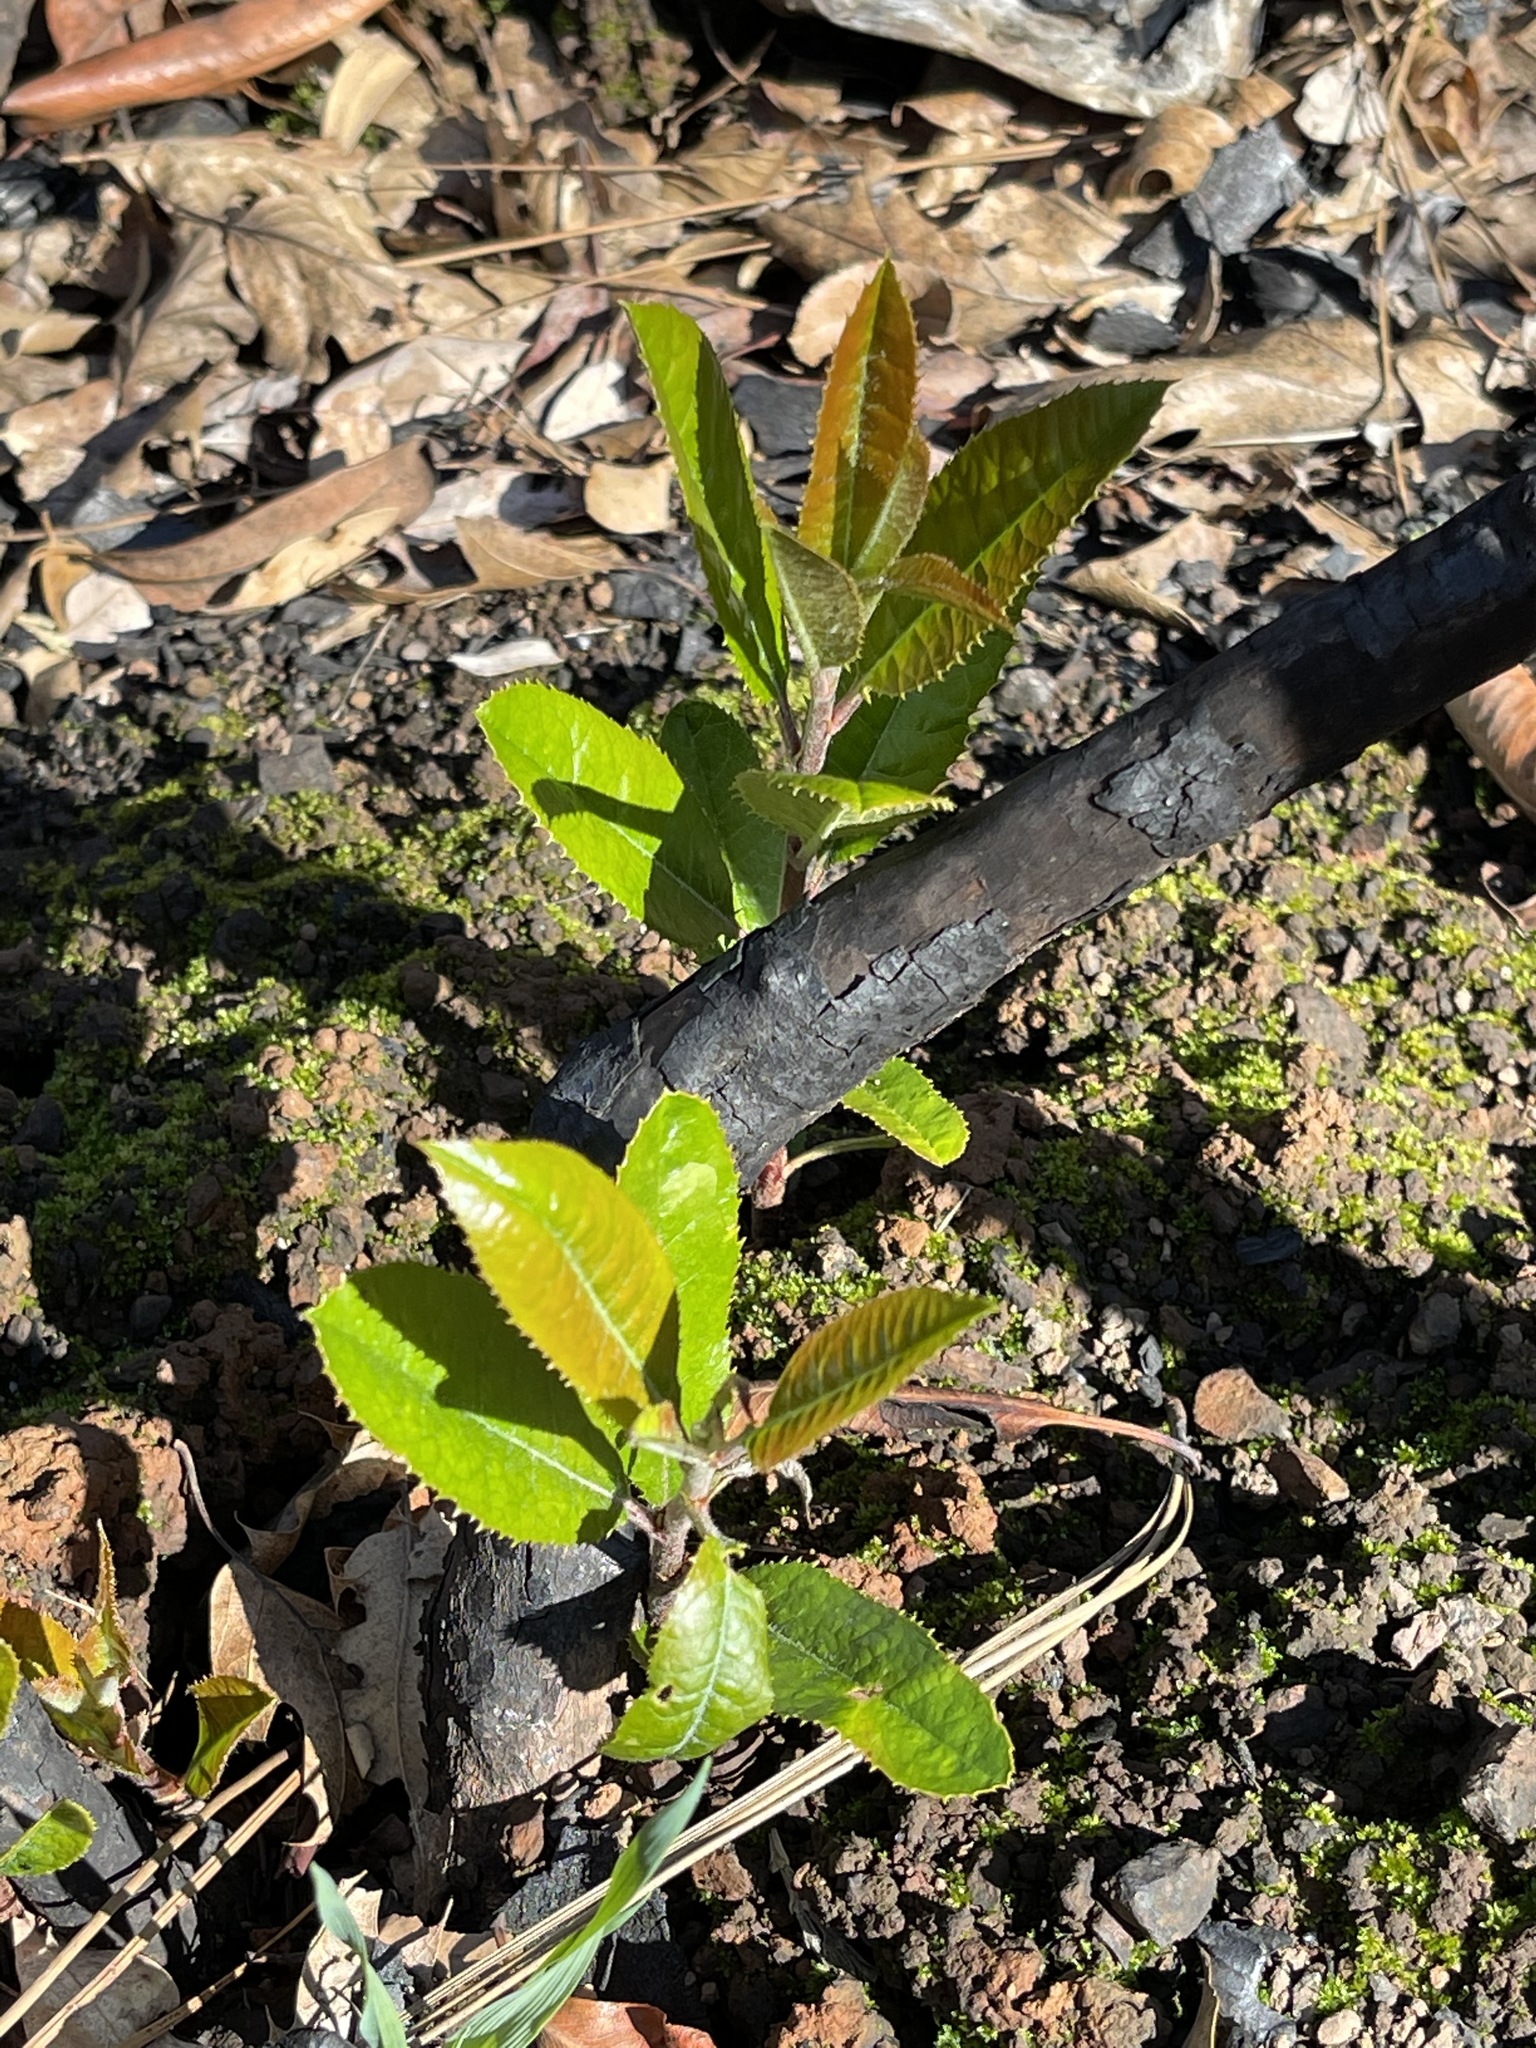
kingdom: Plantae
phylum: Tracheophyta
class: Magnoliopsida
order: Rosales
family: Rosaceae
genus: Heteromeles
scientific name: Heteromeles arbutifolia
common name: California-holly
